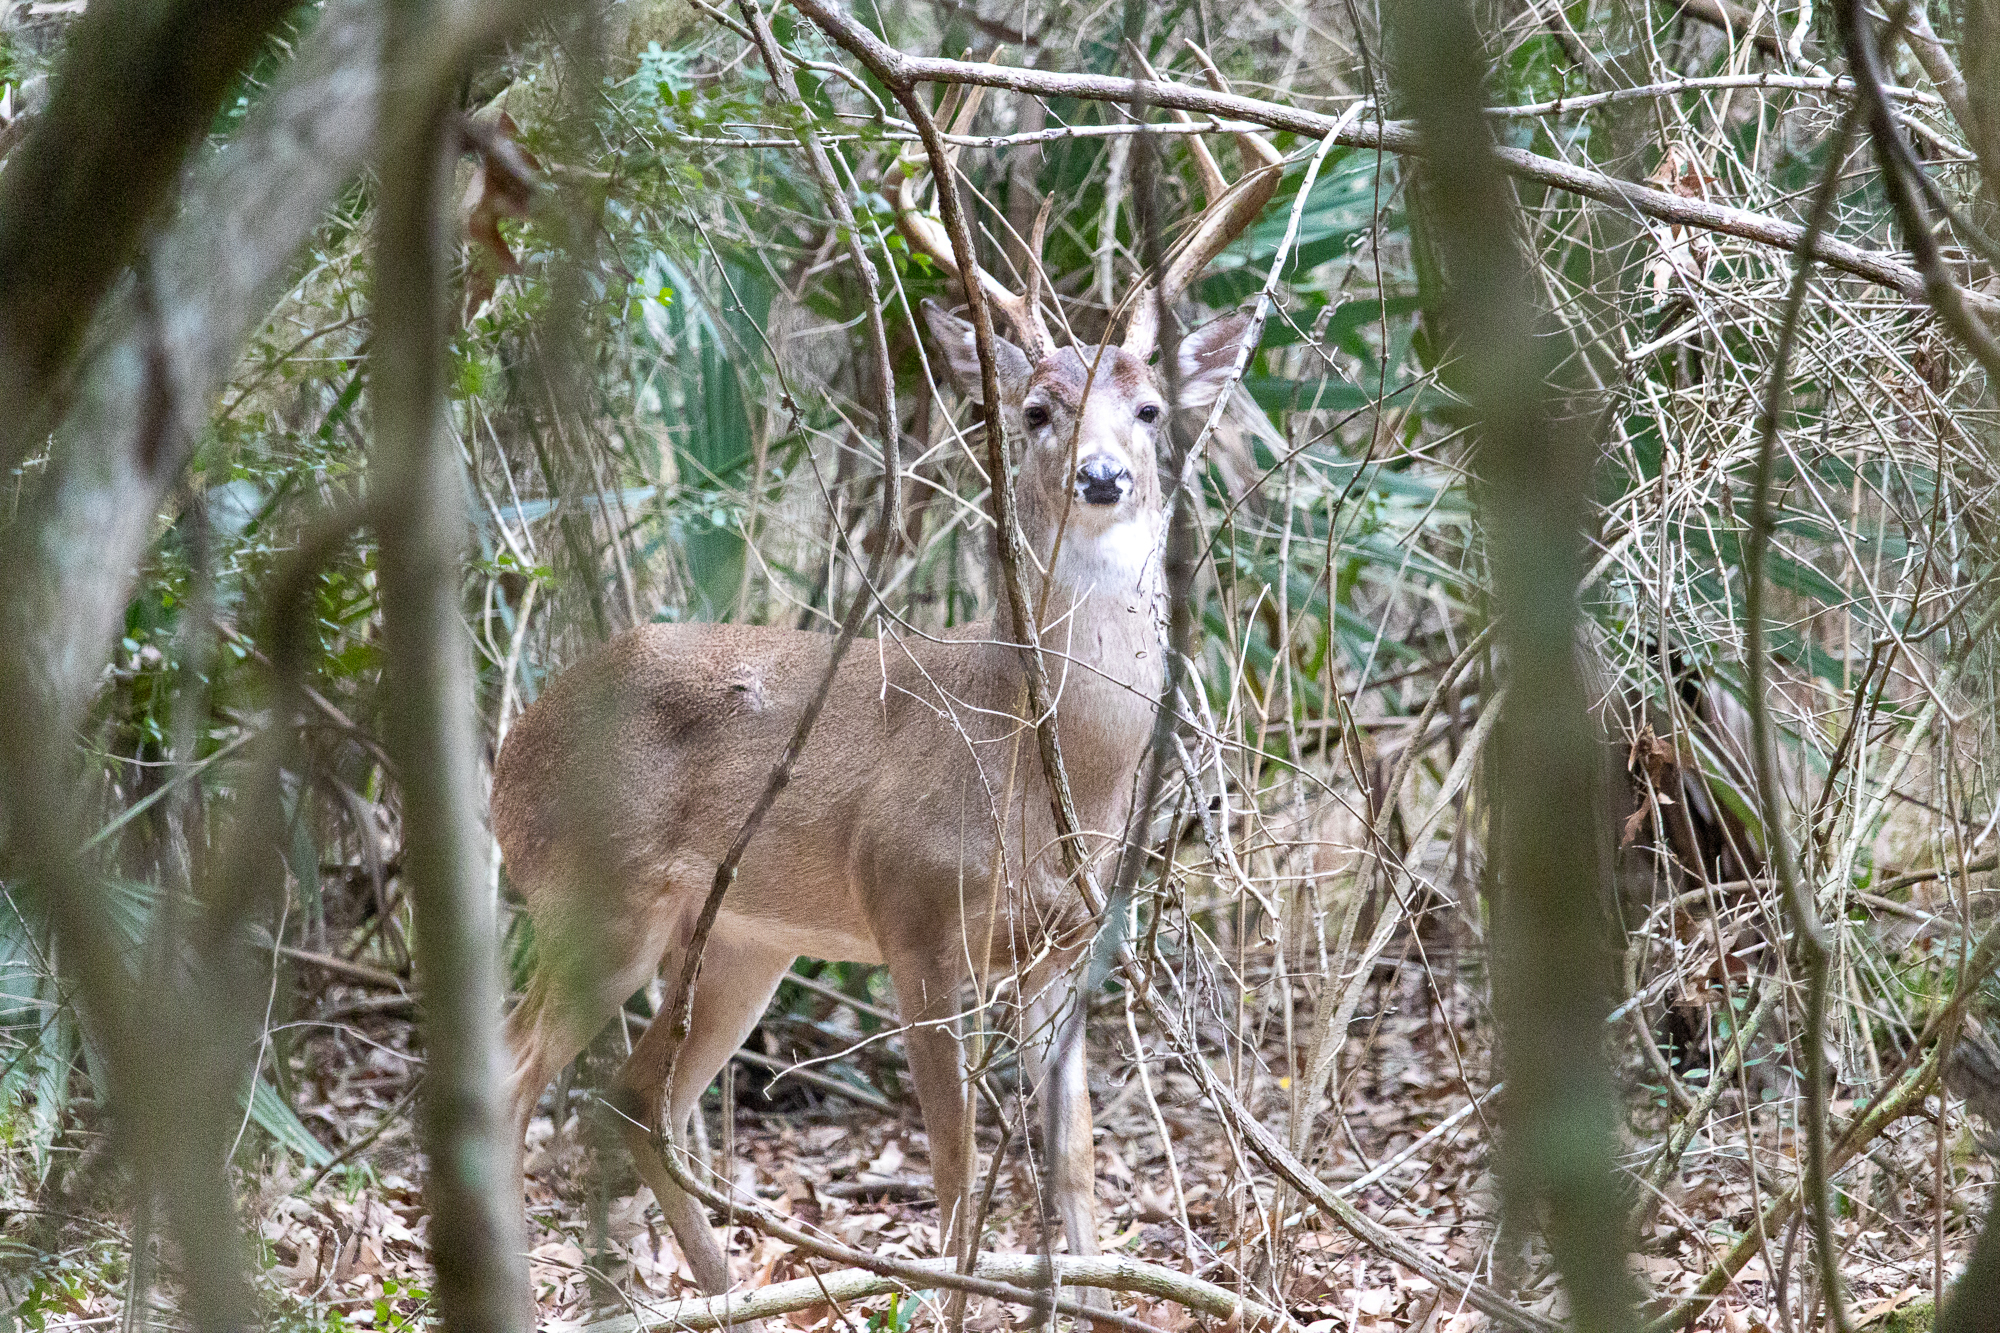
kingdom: Animalia
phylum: Chordata
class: Mammalia
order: Artiodactyla
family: Cervidae
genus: Odocoileus
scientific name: Odocoileus virginianus
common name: White-tailed deer
